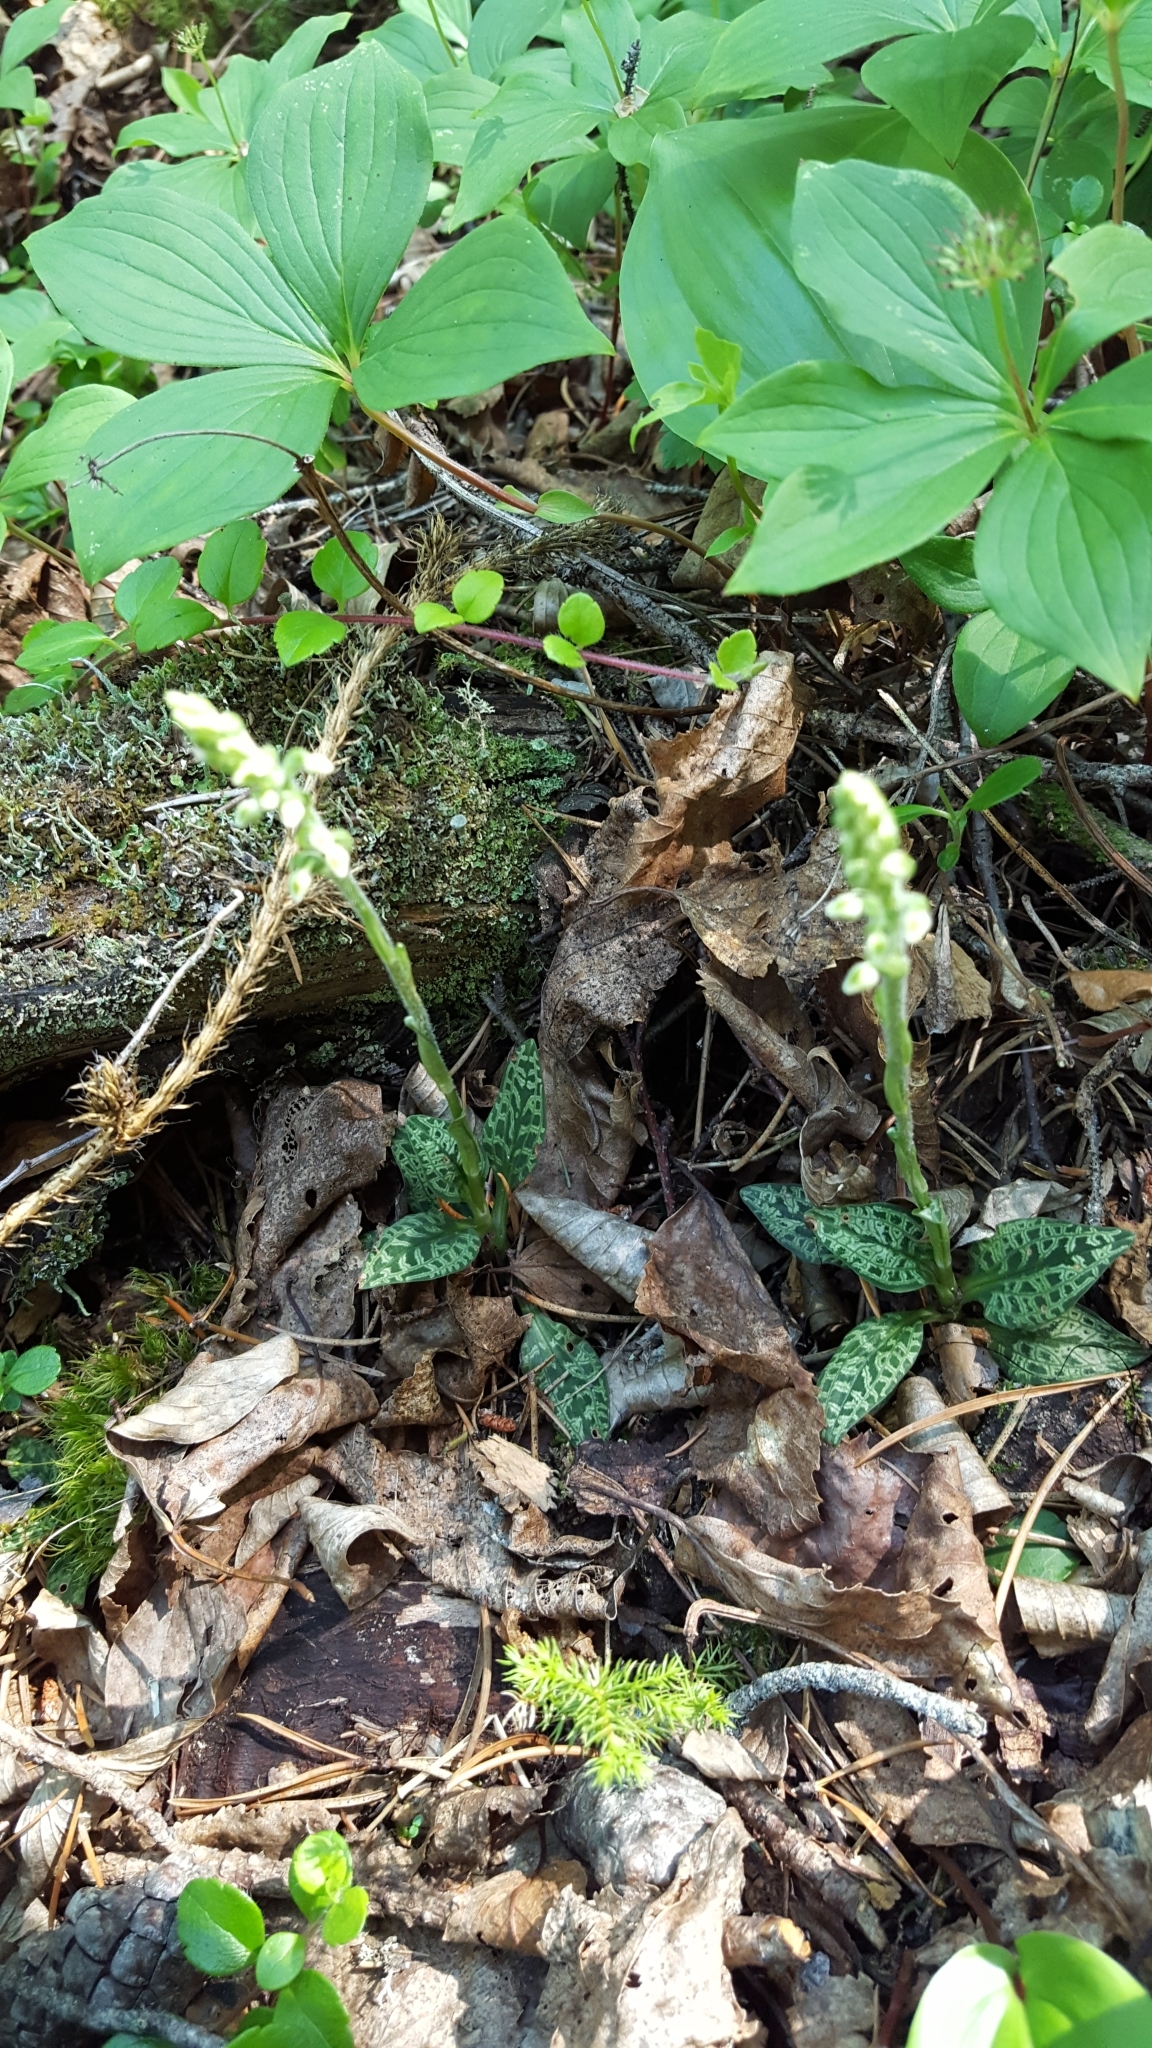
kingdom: Plantae
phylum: Tracheophyta
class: Liliopsida
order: Asparagales
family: Orchidaceae
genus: Goodyera
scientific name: Goodyera repens
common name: Creeping lady's-tresses
